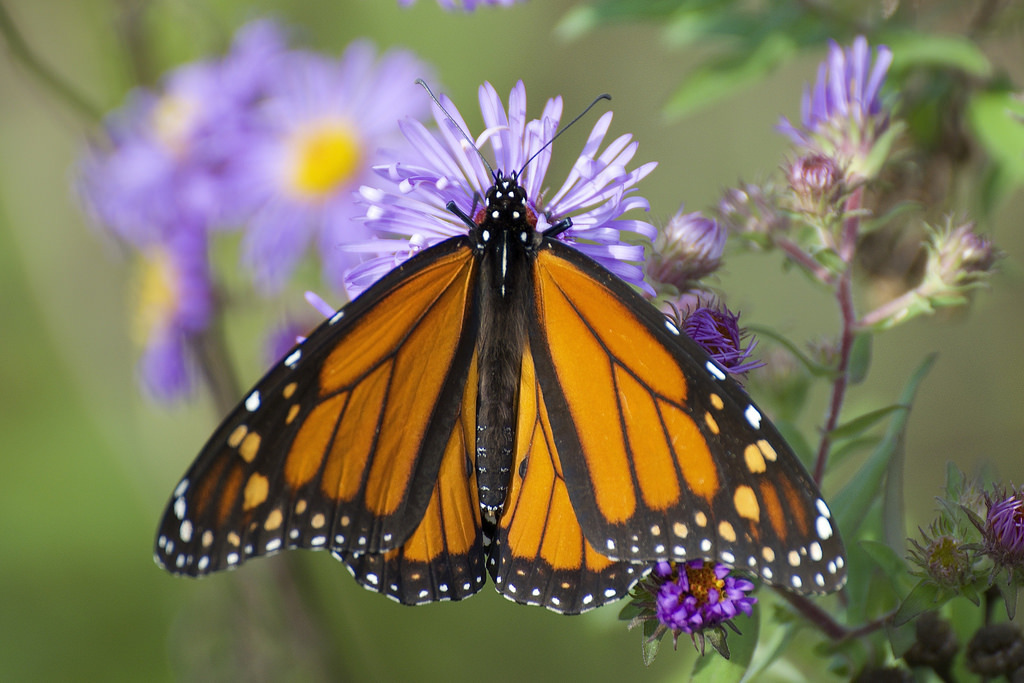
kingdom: Animalia
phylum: Arthropoda
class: Insecta
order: Lepidoptera
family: Nymphalidae
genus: Danaus
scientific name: Danaus plexippus
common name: Monarch
